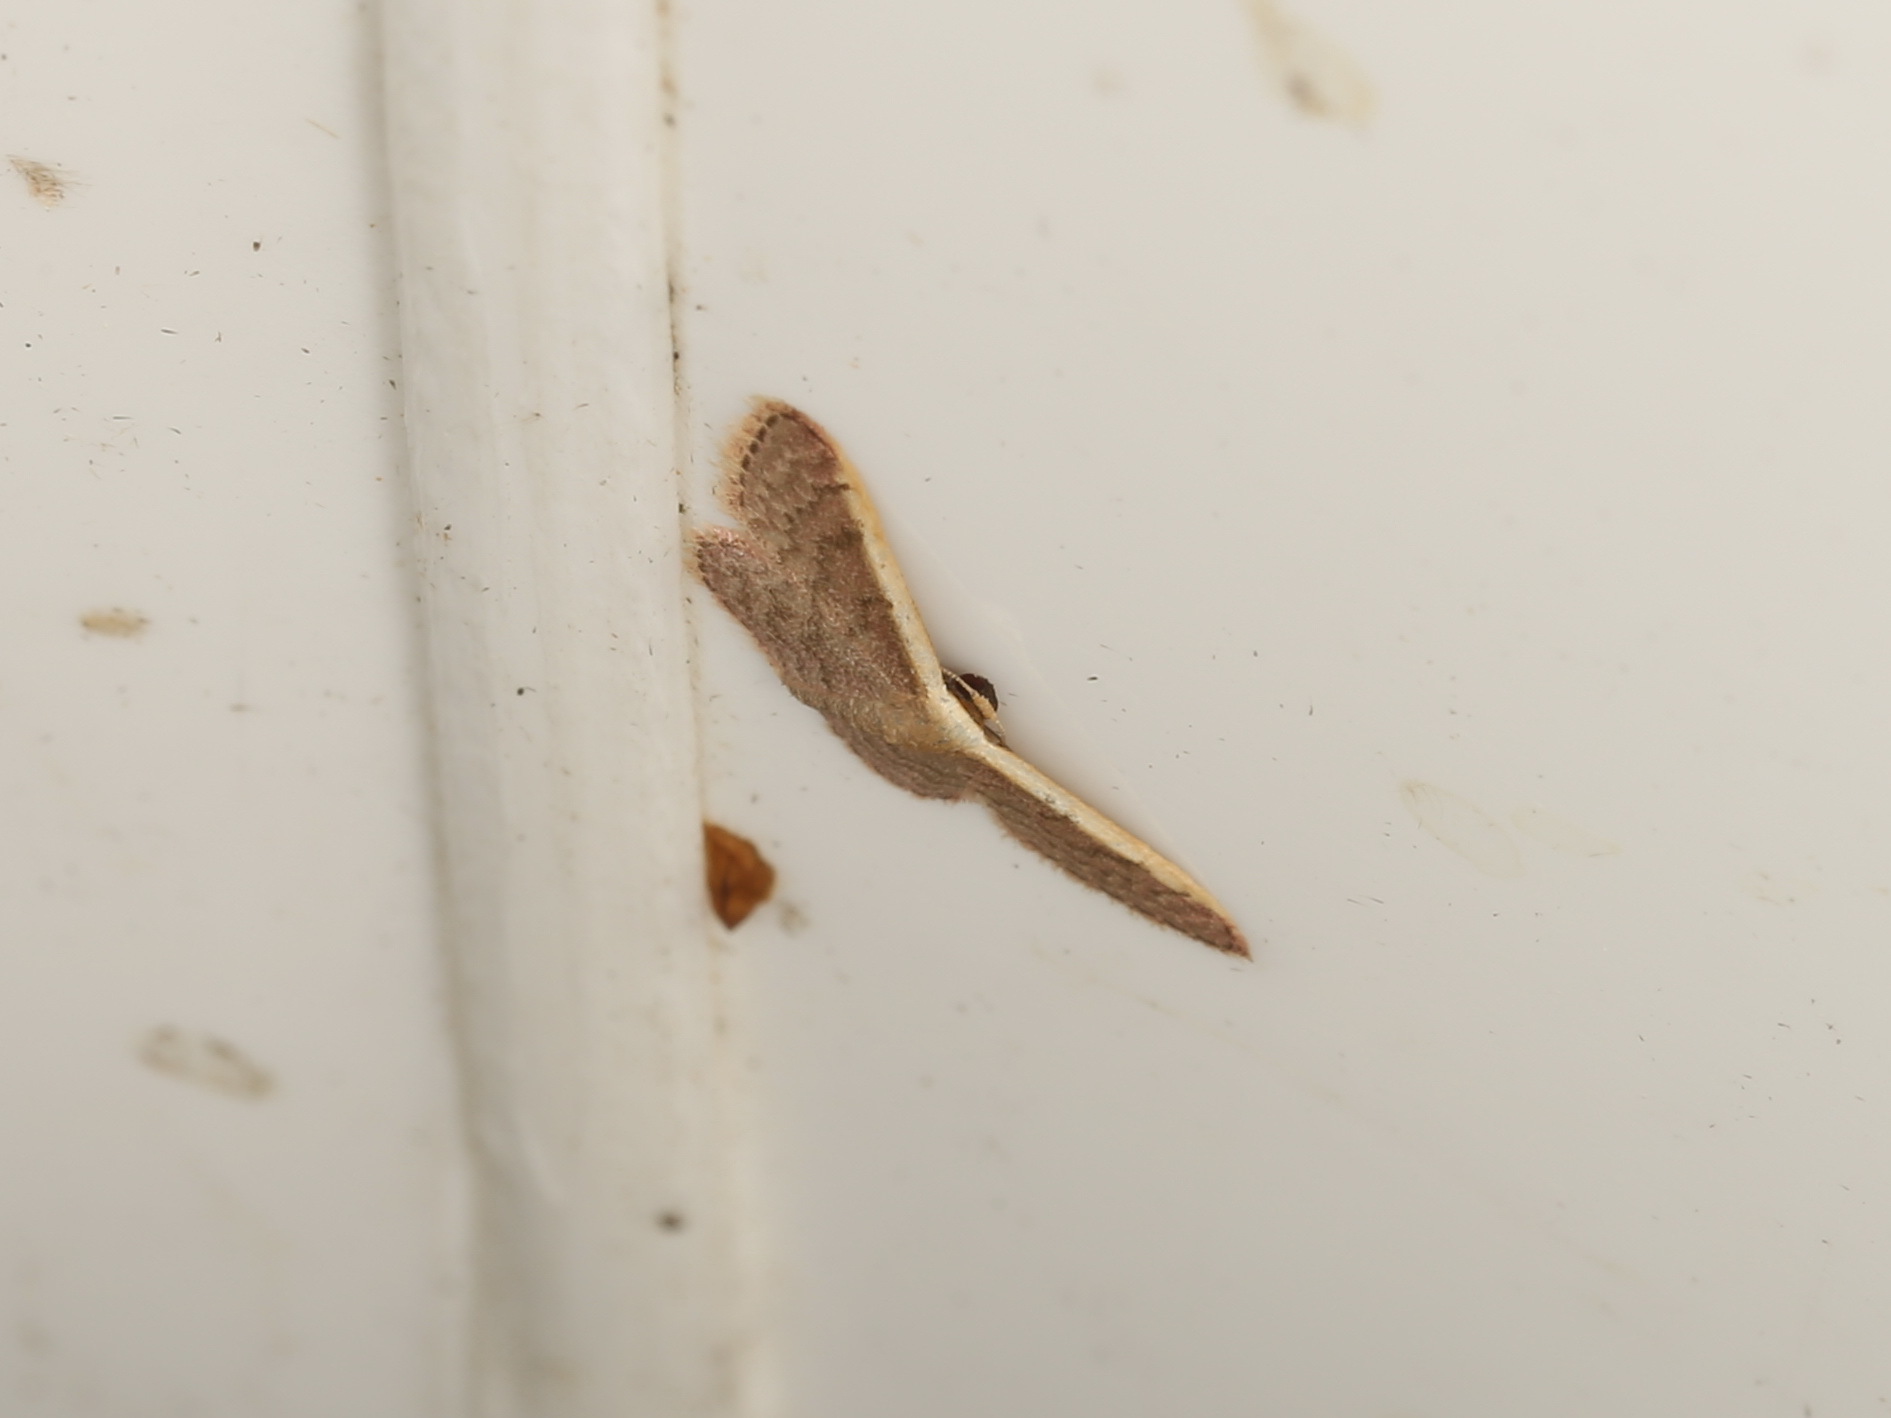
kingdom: Animalia
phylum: Arthropoda
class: Insecta
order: Lepidoptera
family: Geometridae
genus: Idaea
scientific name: Idaea costaria
